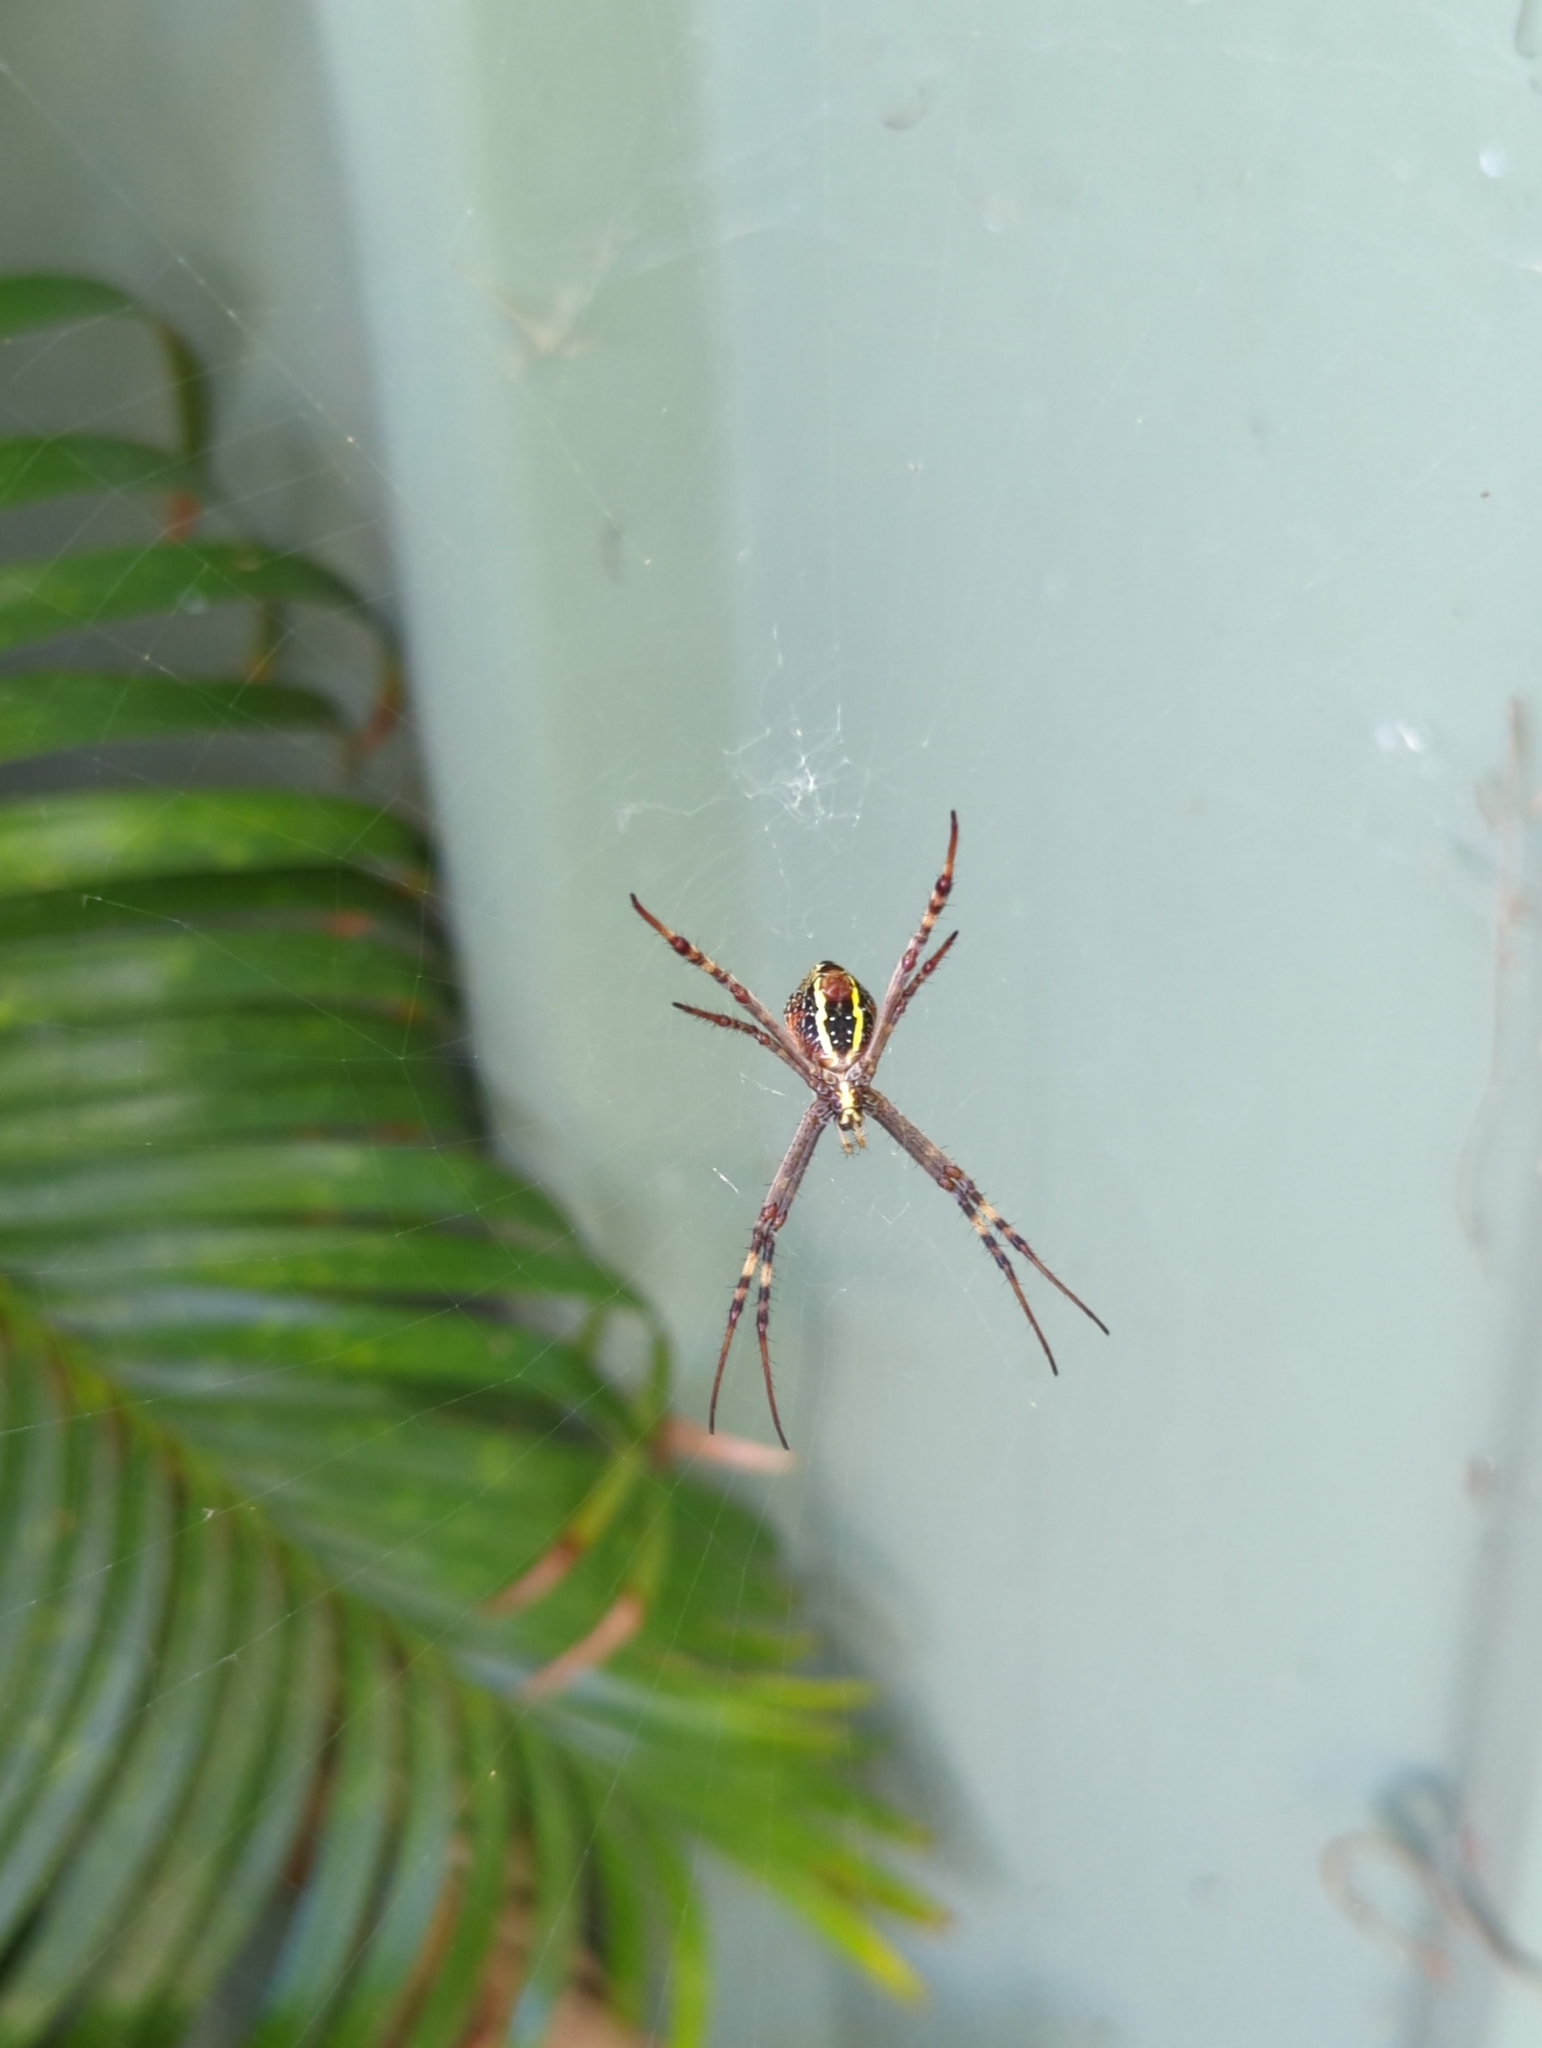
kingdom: Animalia
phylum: Arthropoda
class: Arachnida
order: Araneae
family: Araneidae
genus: Argiope
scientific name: Argiope keyserlingi
